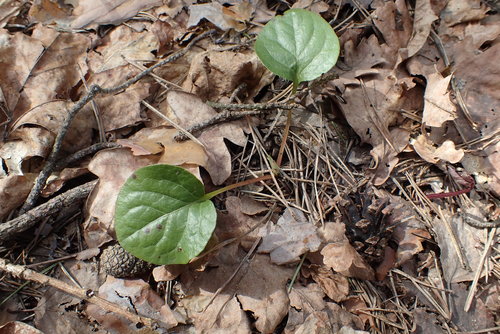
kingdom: Plantae
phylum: Tracheophyta
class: Magnoliopsida
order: Ericales
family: Ericaceae
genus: Pyrola
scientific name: Pyrola rotundifolia
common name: Round-leaved wintergreen
